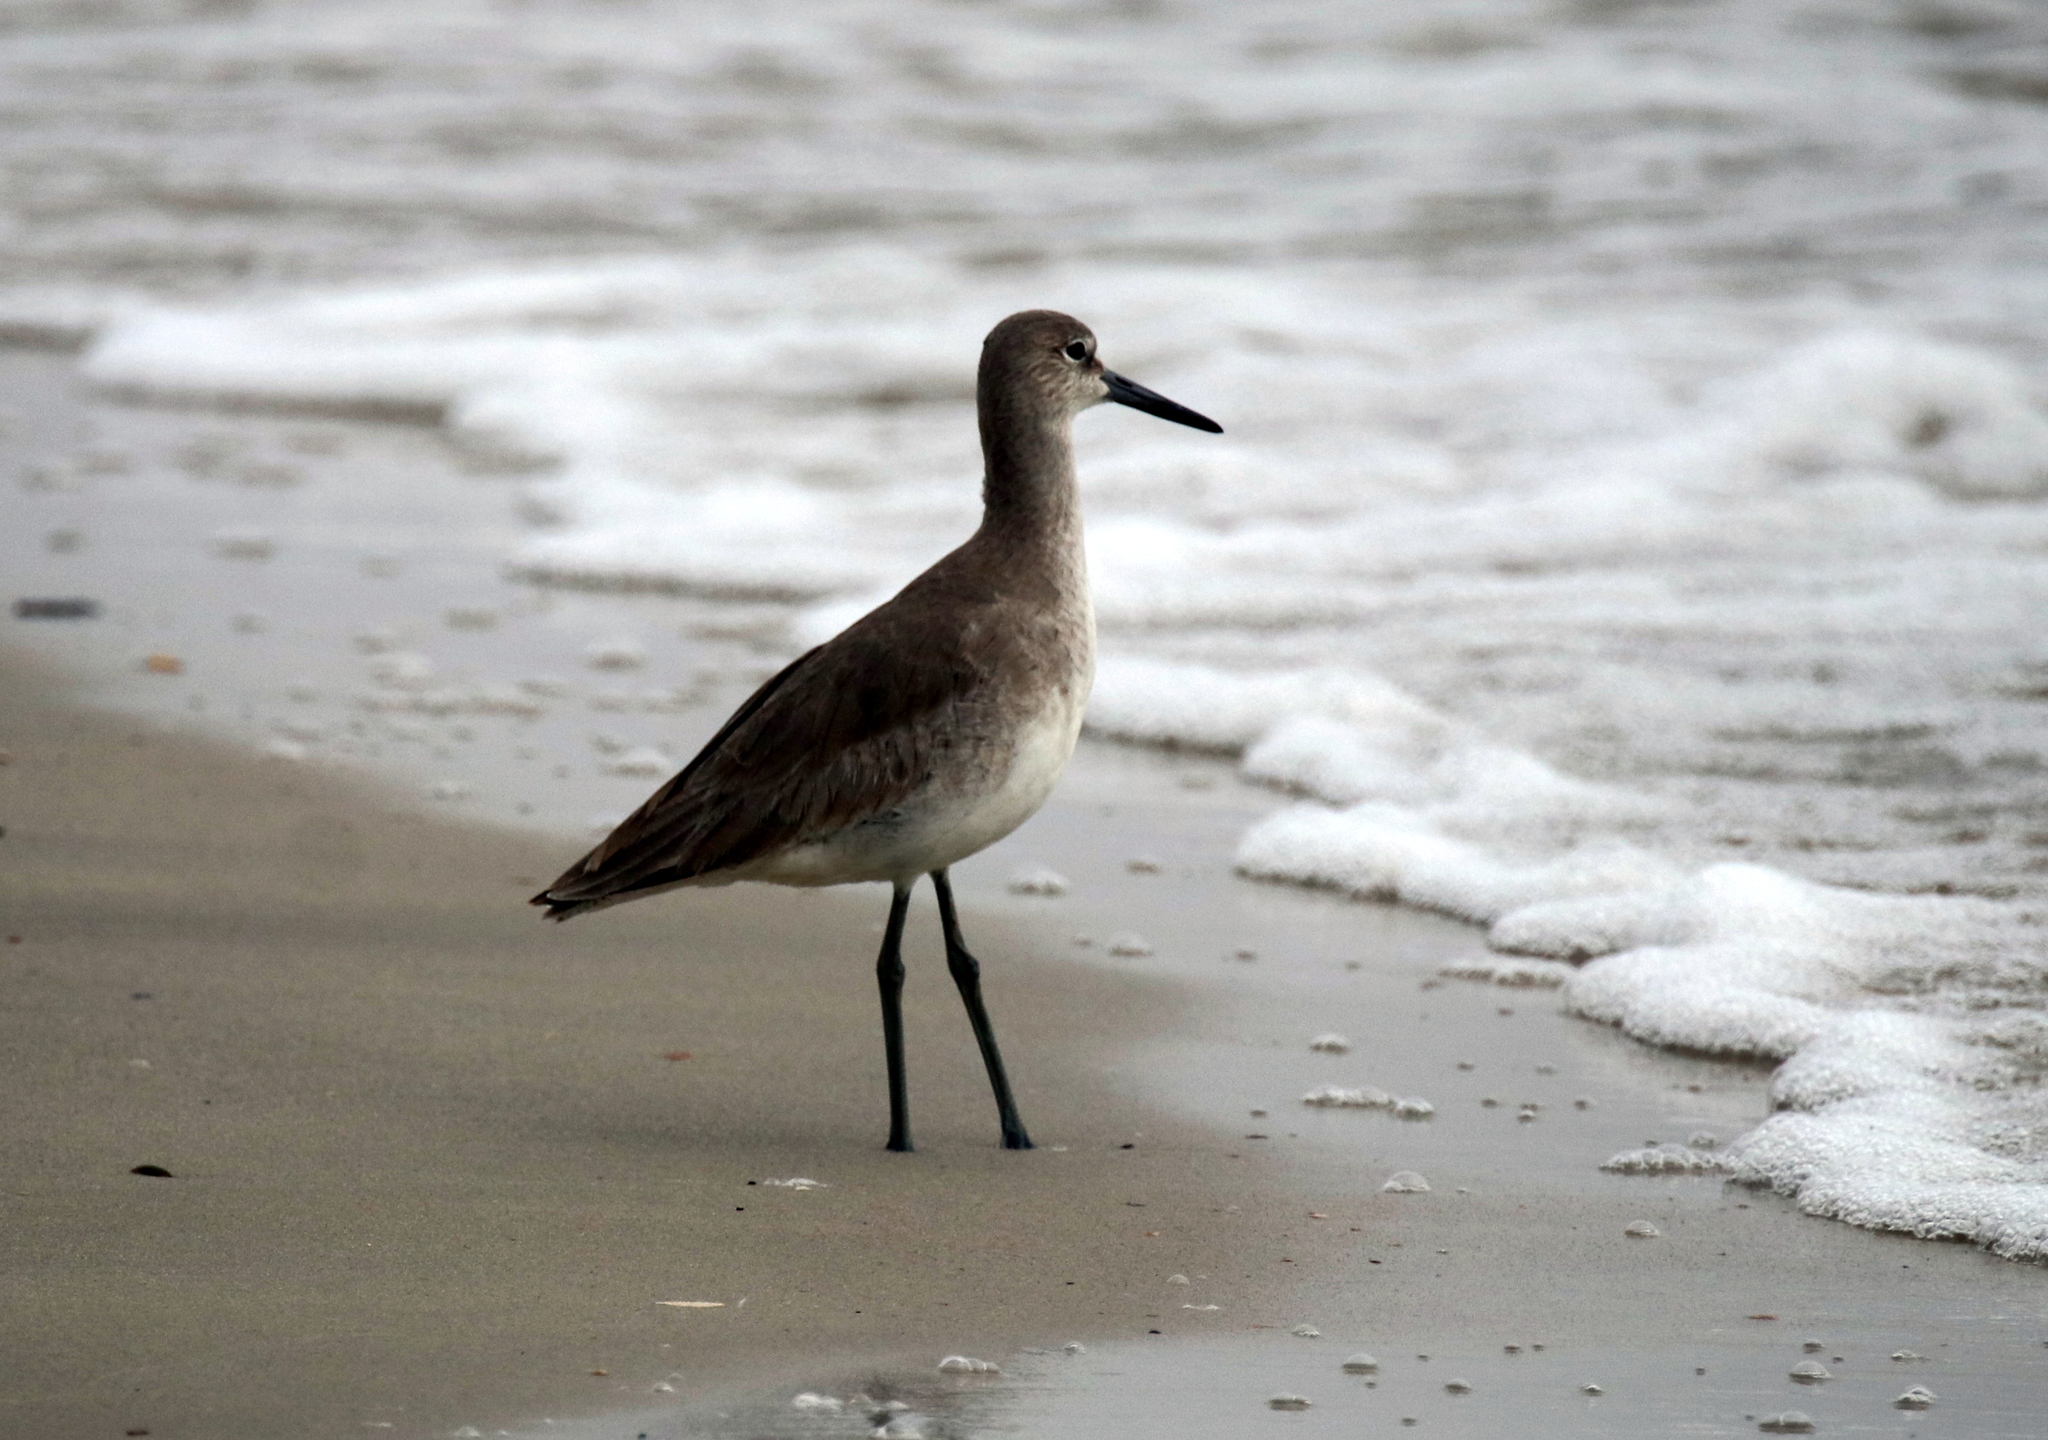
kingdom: Animalia
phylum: Chordata
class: Aves
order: Charadriiformes
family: Scolopacidae
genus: Tringa
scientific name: Tringa semipalmata
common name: Willet
